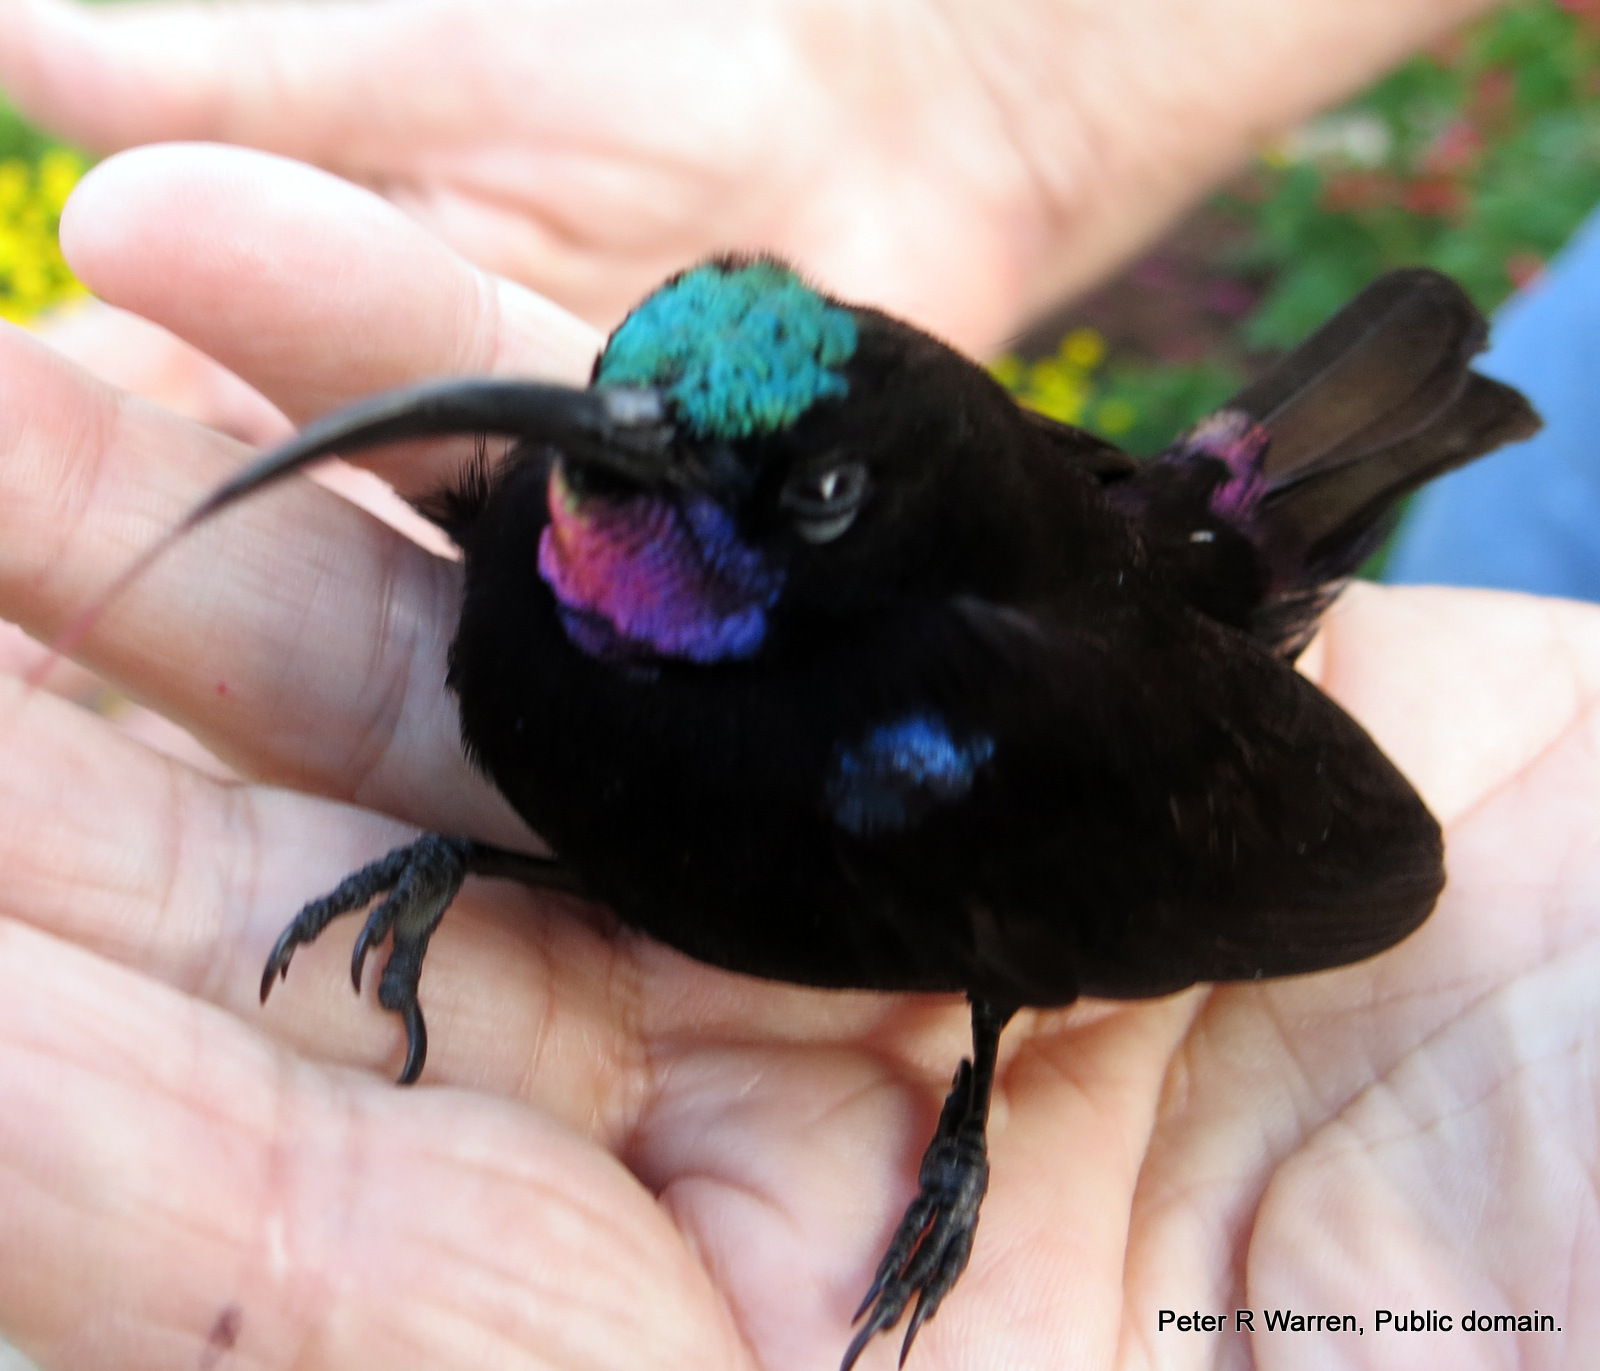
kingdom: Animalia
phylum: Chordata
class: Aves
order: Passeriformes
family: Nectariniidae
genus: Chalcomitra
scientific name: Chalcomitra amethystina
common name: Amethyst sunbird
